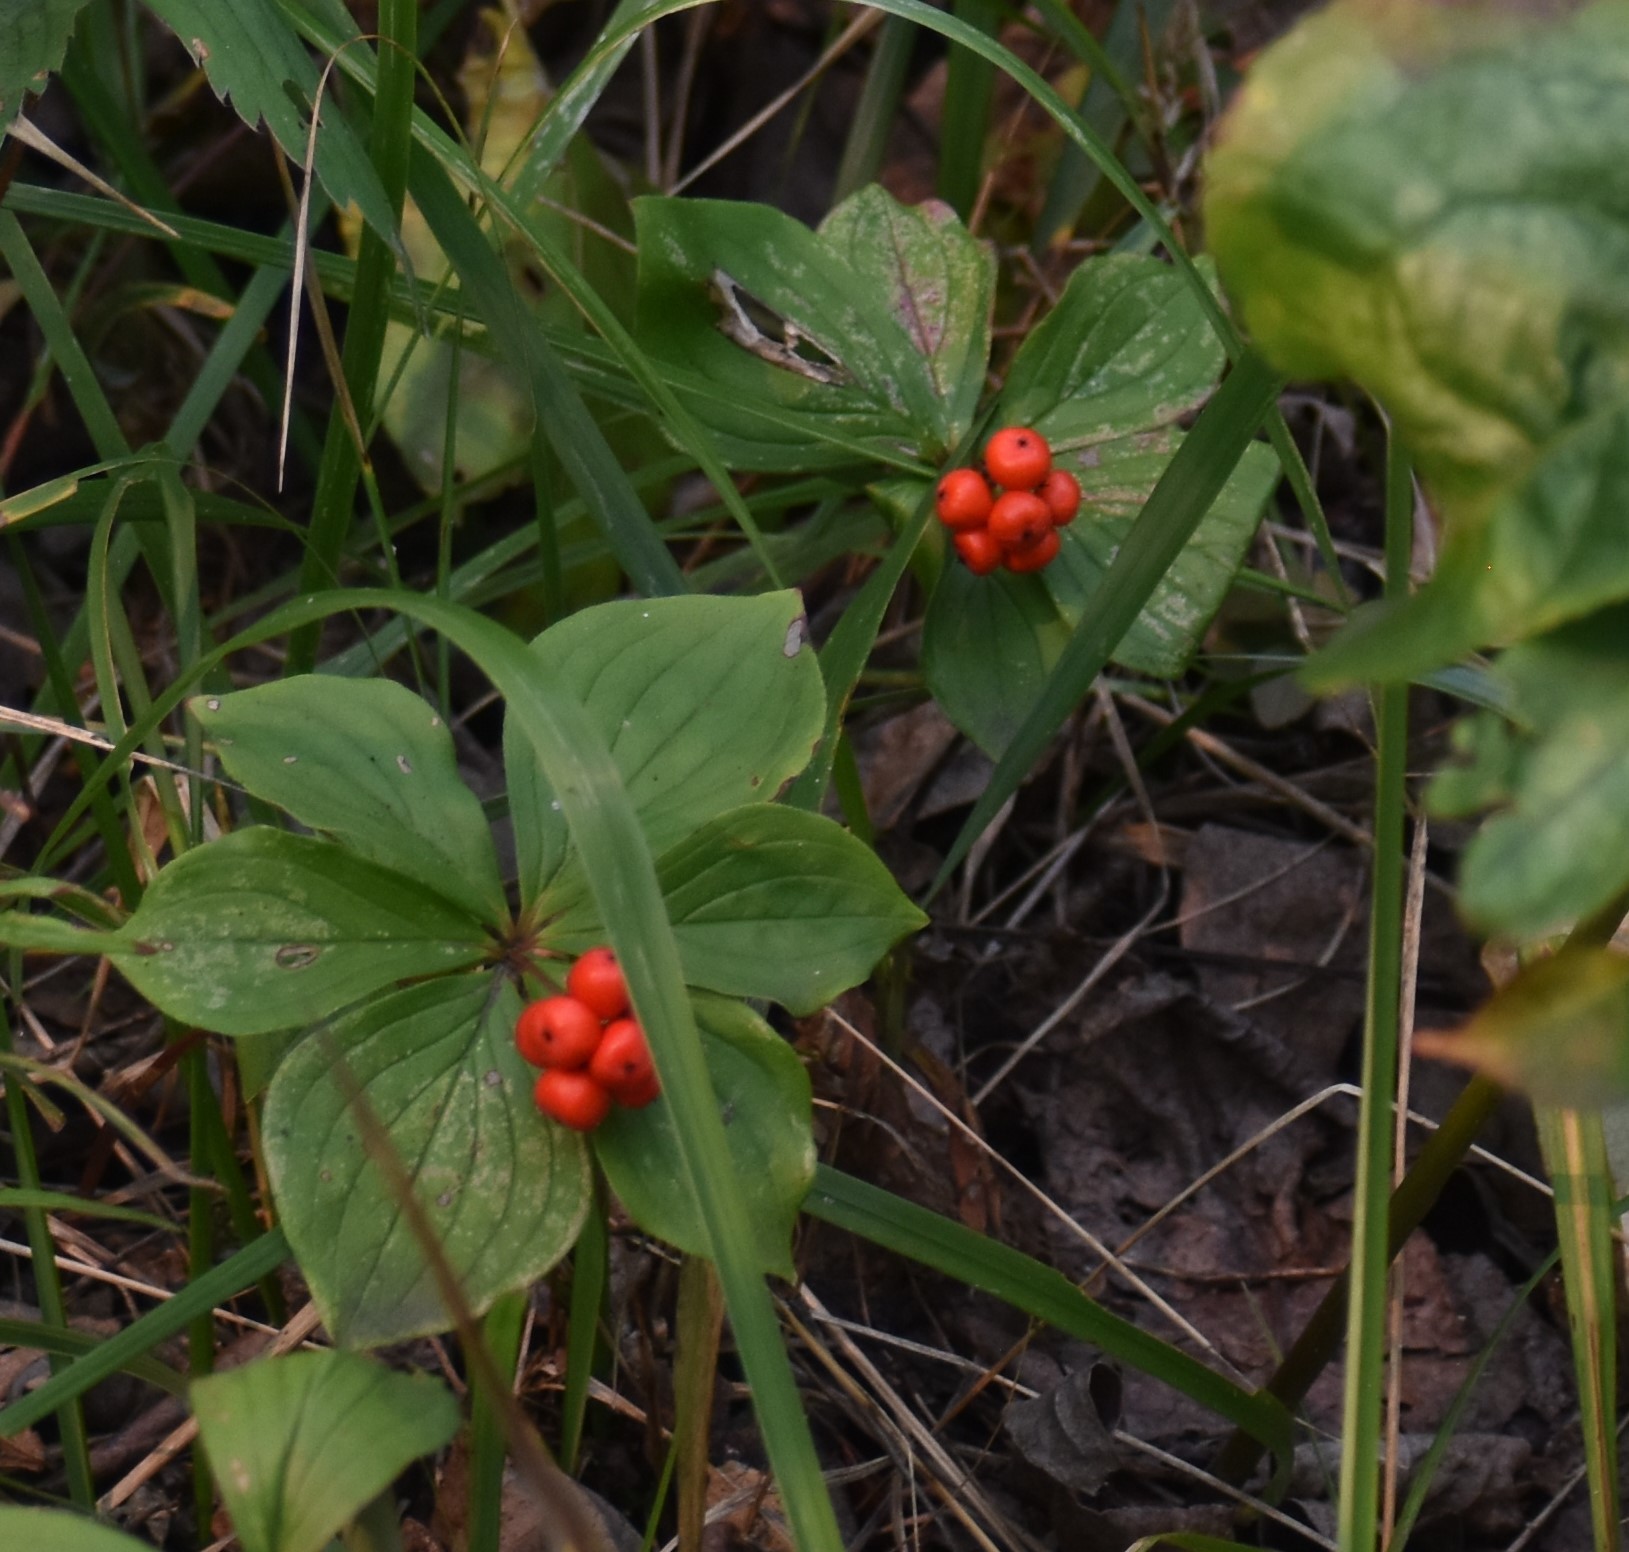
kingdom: Plantae
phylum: Tracheophyta
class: Magnoliopsida
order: Cornales
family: Cornaceae
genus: Cornus
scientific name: Cornus canadensis
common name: Creeping dogwood
